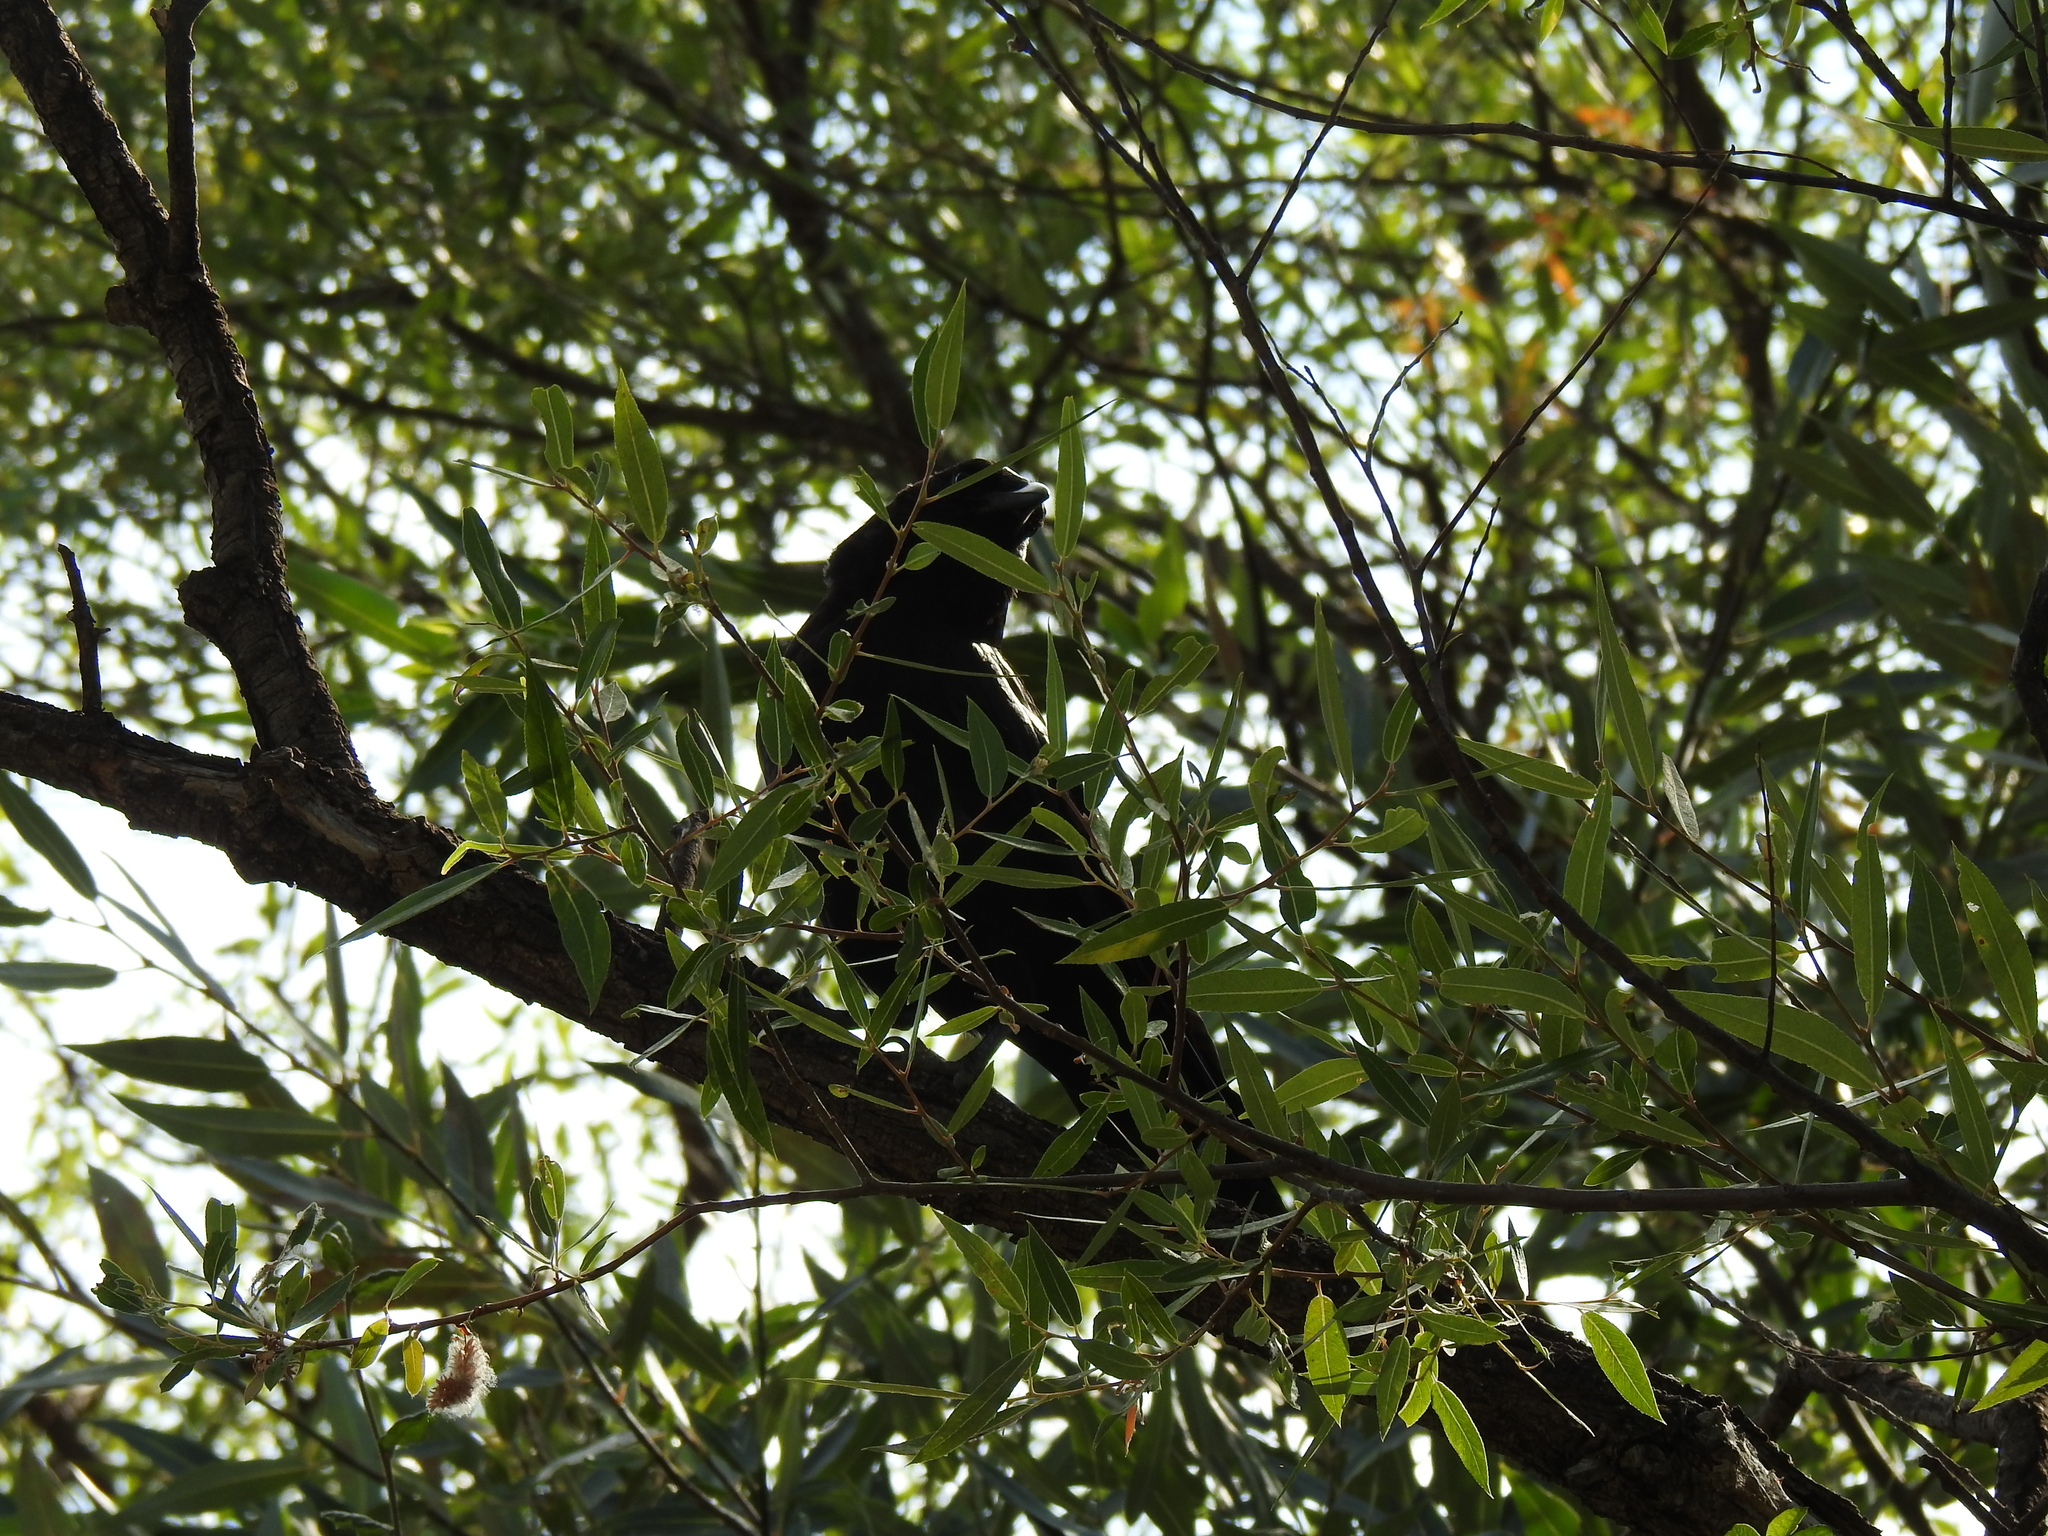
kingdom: Animalia
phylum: Chordata
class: Aves
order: Passeriformes
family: Corvidae
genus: Corvus
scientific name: Corvus brachyrhynchos
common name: American crow
